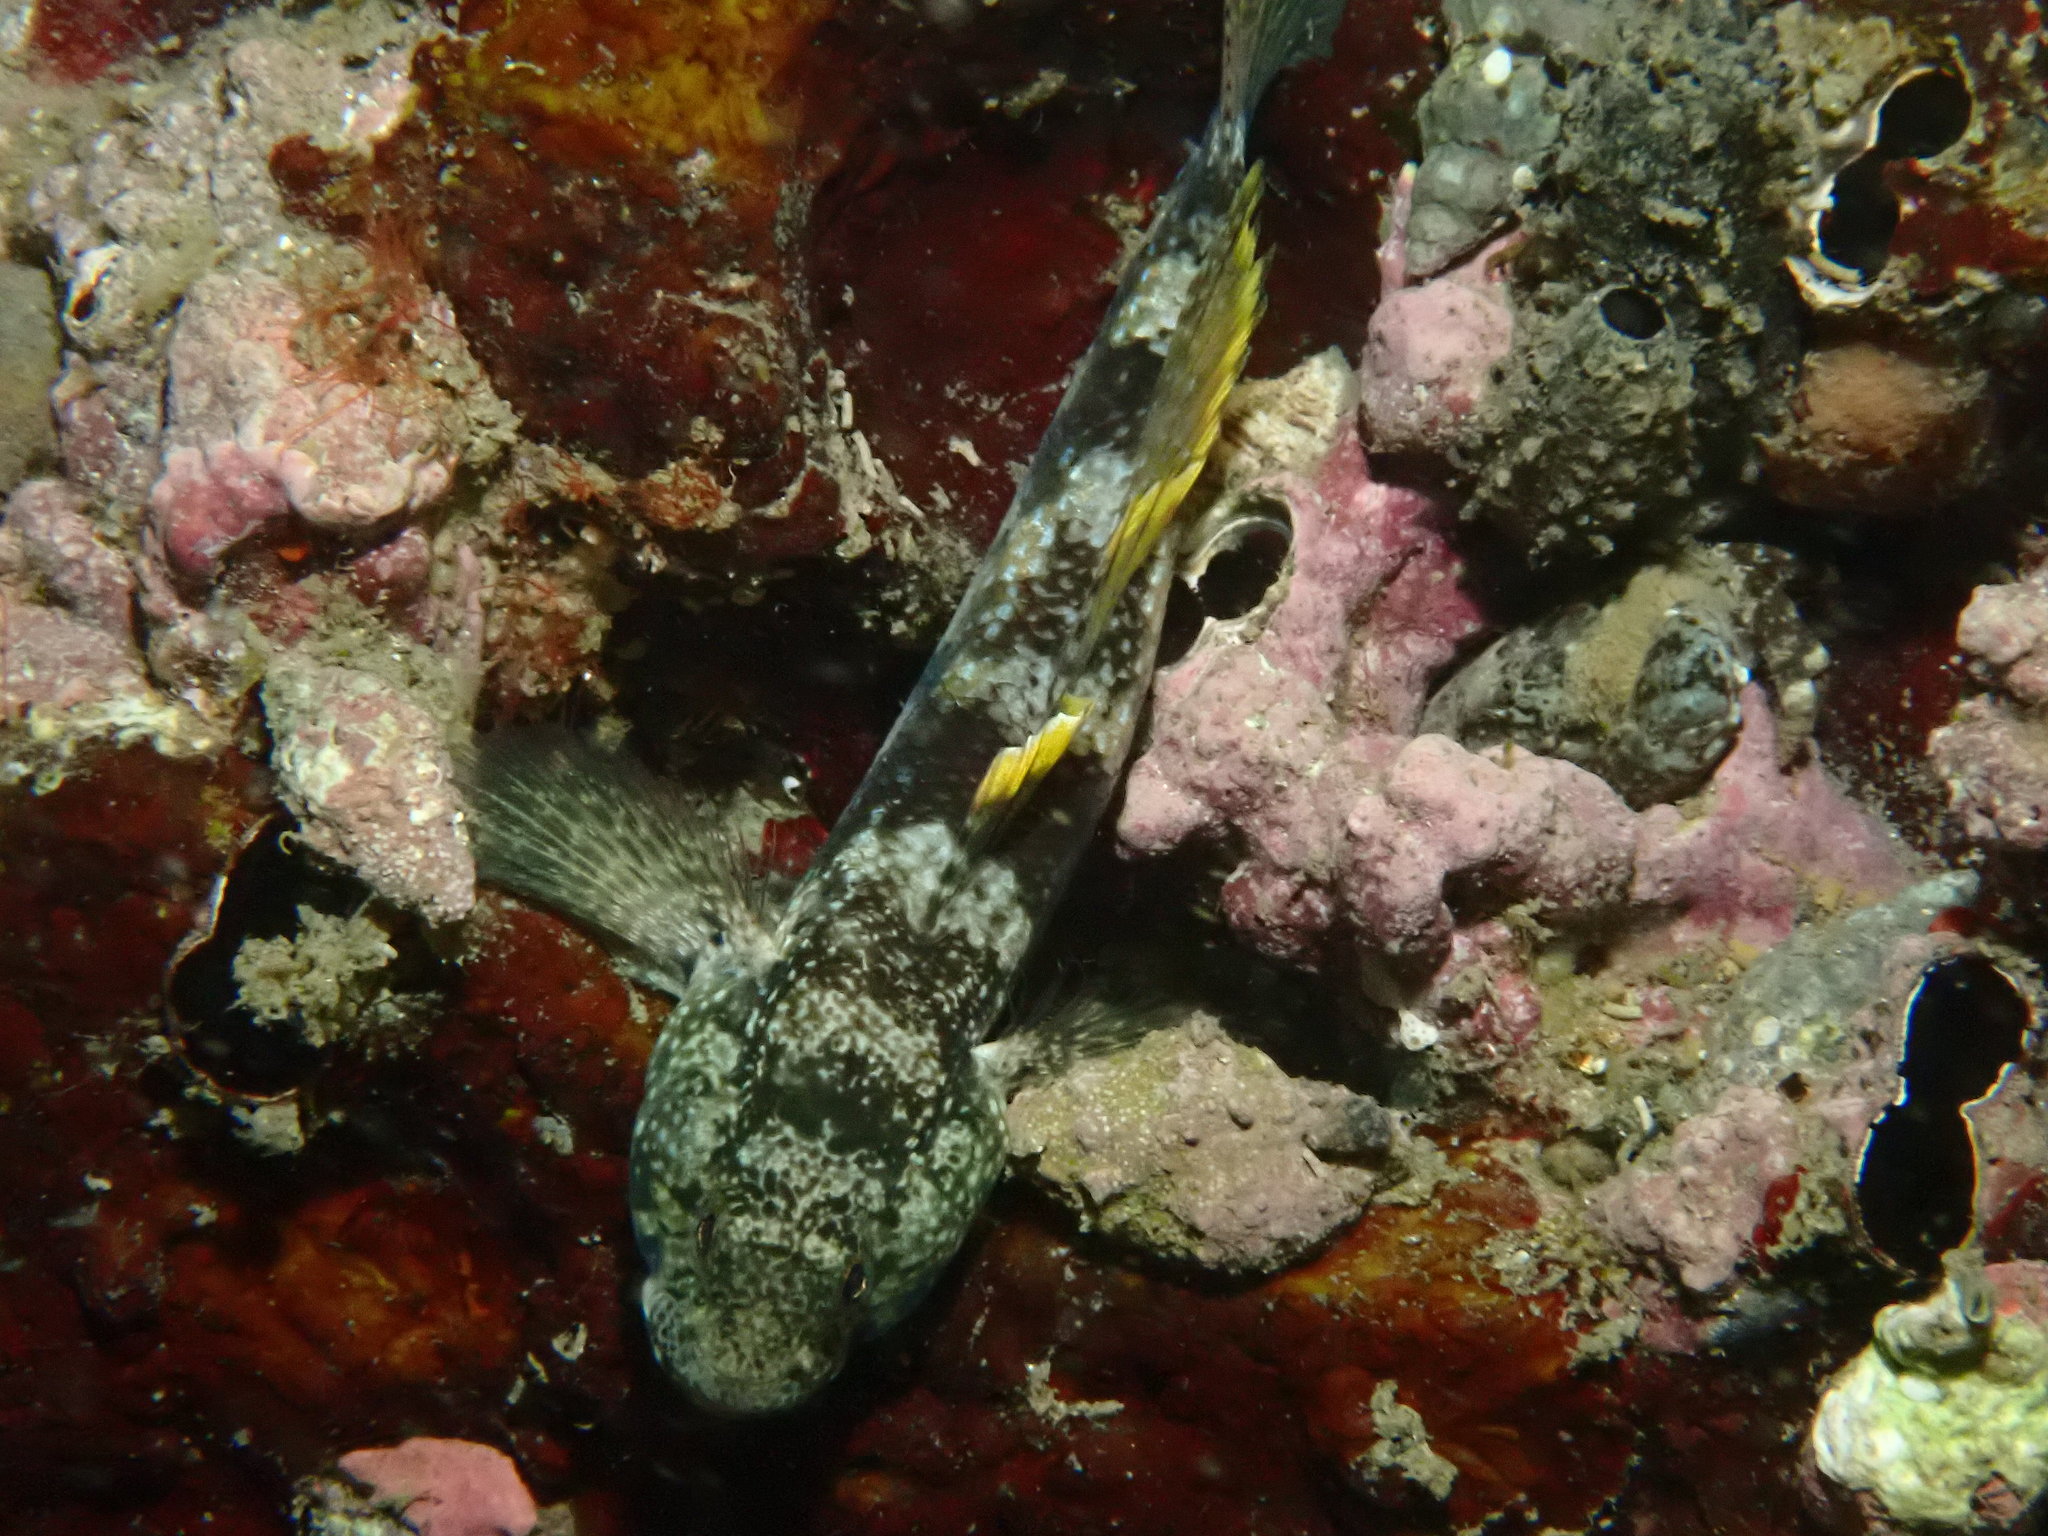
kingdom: Animalia
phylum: Chordata
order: Perciformes
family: Gobiidae
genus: Bathygobius
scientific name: Bathygobius fuscus
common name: Dusky frillgoby
